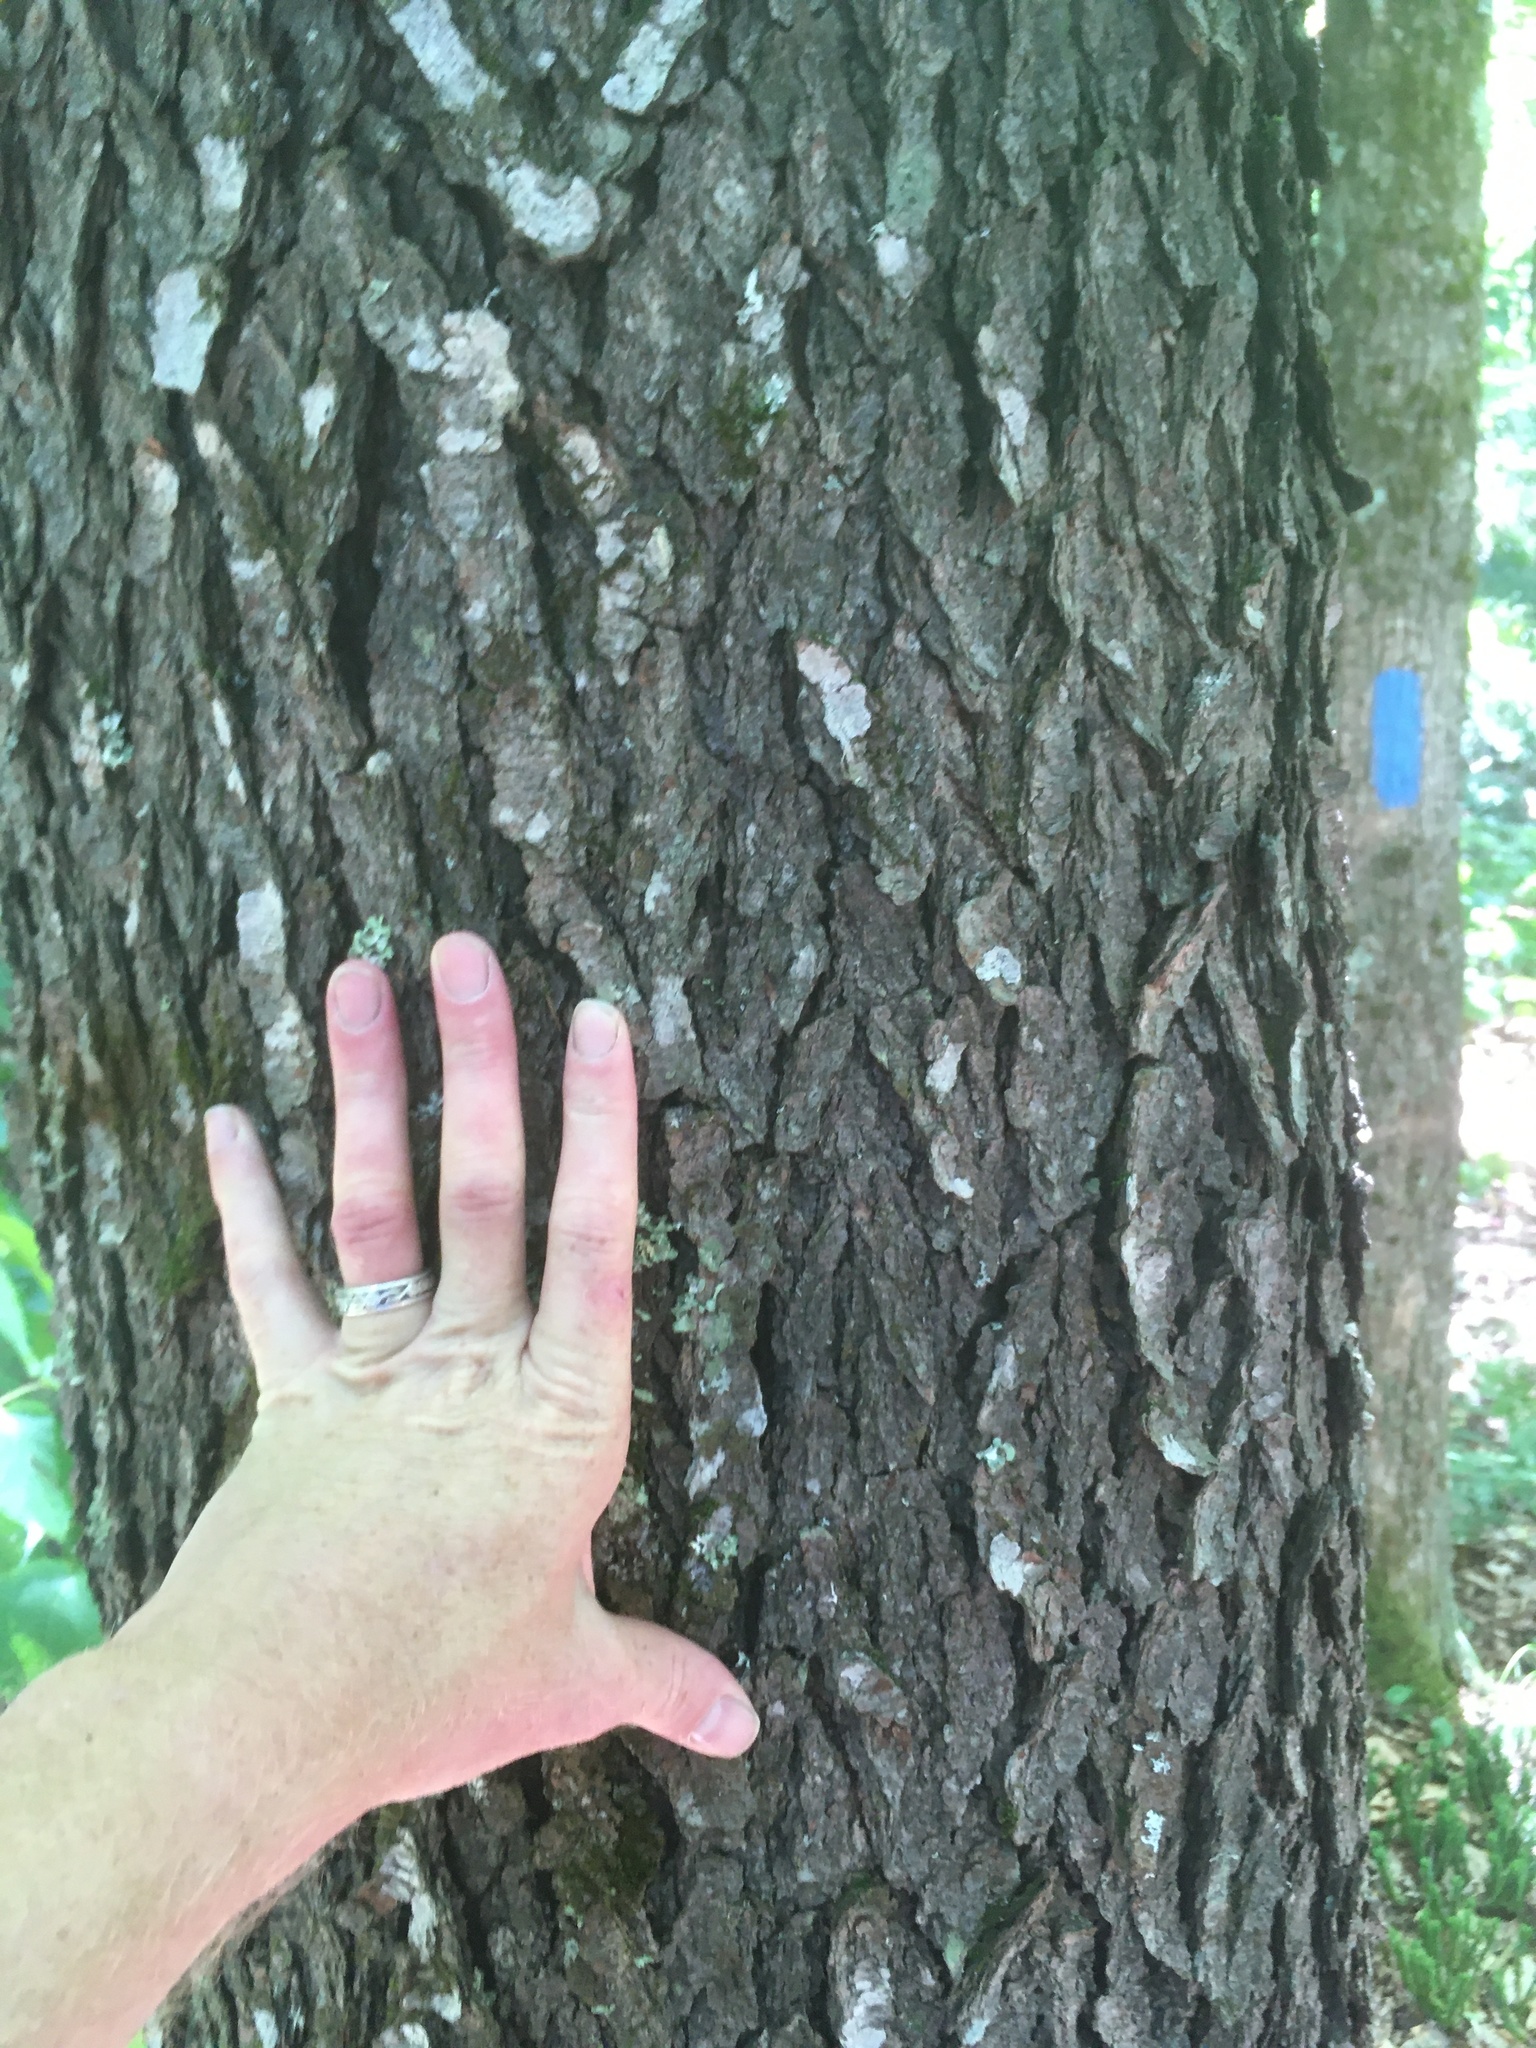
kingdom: Plantae
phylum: Tracheophyta
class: Magnoliopsida
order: Rosales
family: Rosaceae
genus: Prunus
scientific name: Prunus serotina
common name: Black cherry
